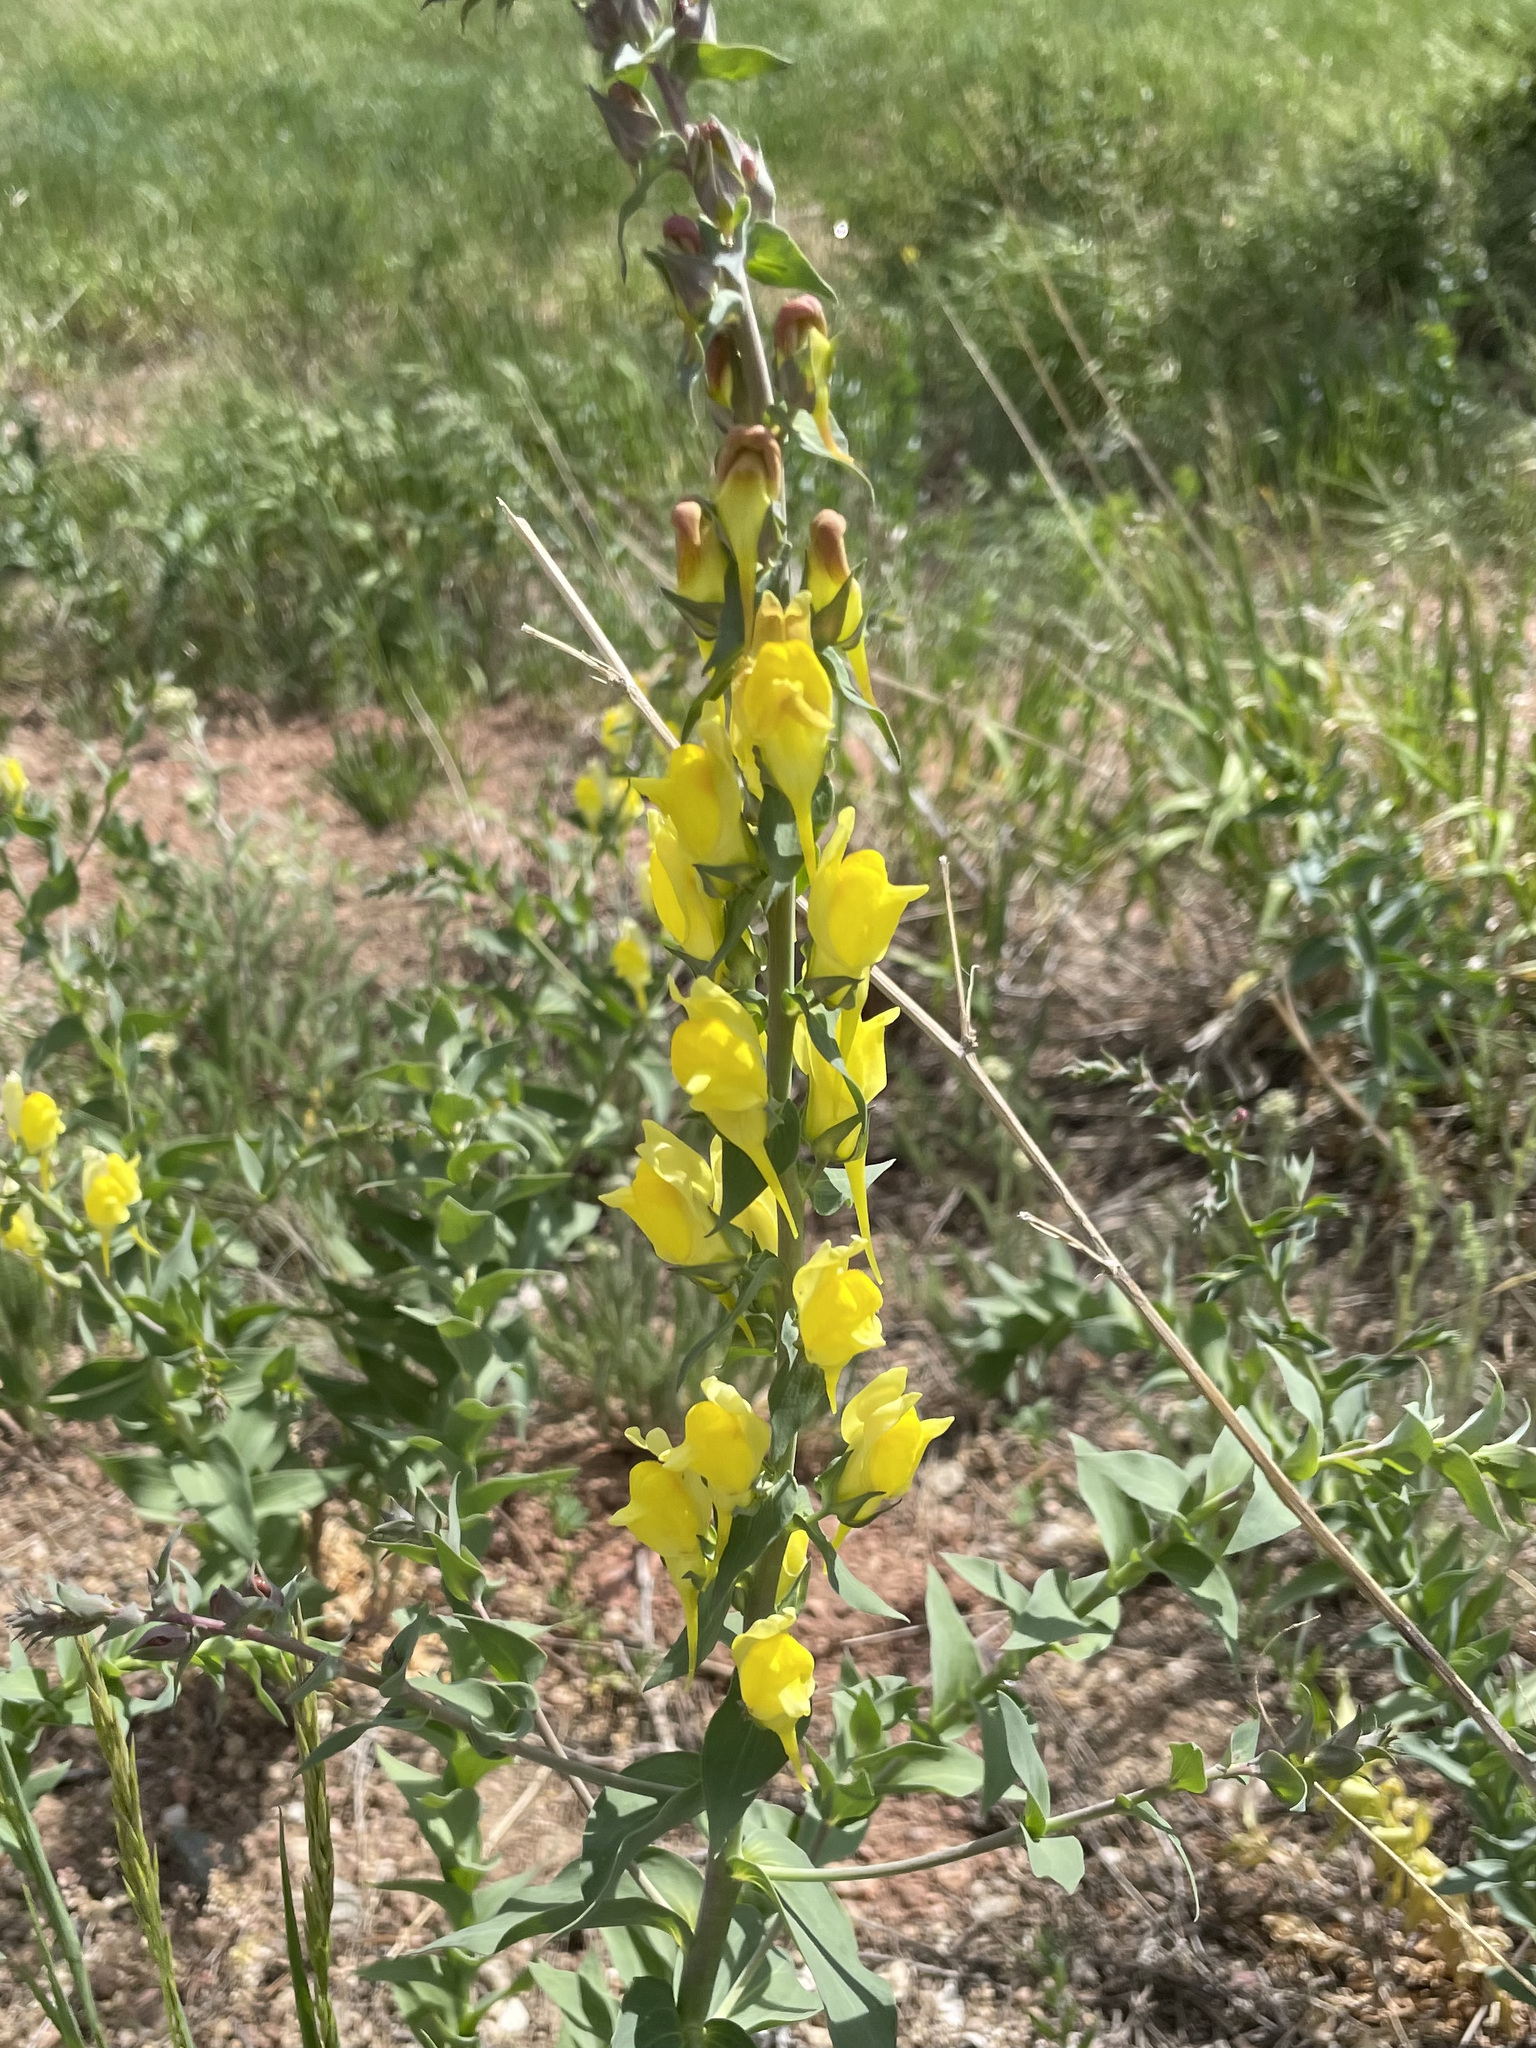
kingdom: Plantae
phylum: Tracheophyta
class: Magnoliopsida
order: Lamiales
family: Plantaginaceae
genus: Linaria
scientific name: Linaria dalmatica
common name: Dalmatian toadflax
